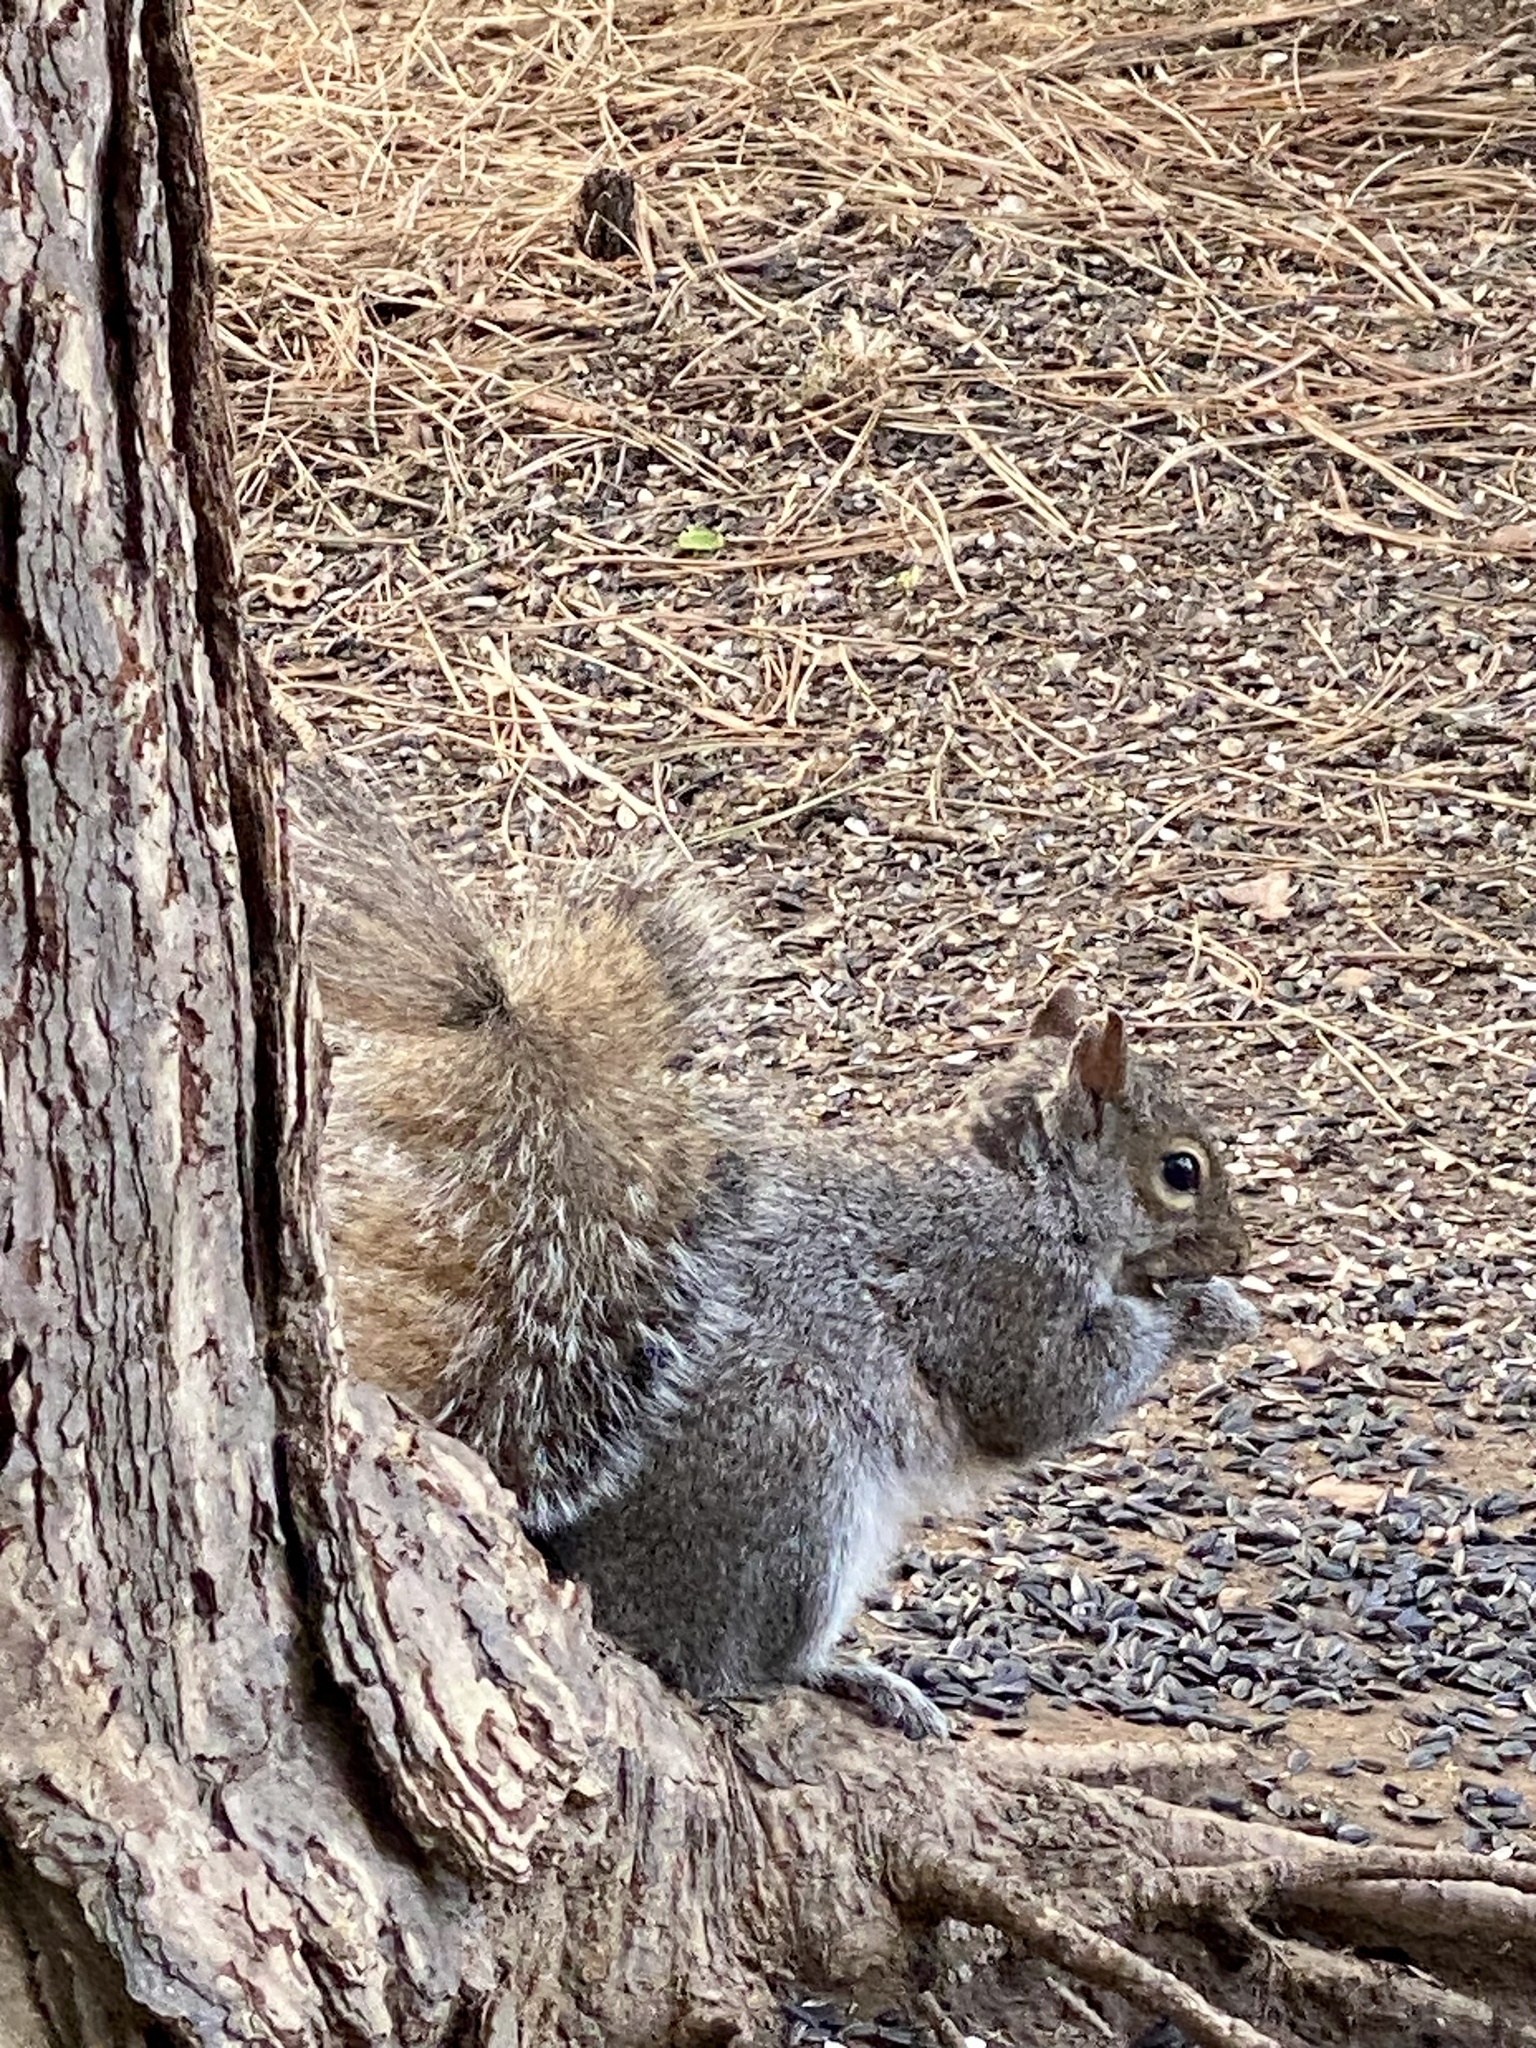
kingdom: Animalia
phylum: Chordata
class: Mammalia
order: Rodentia
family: Sciuridae
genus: Sciurus
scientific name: Sciurus carolinensis
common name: Eastern gray squirrel
